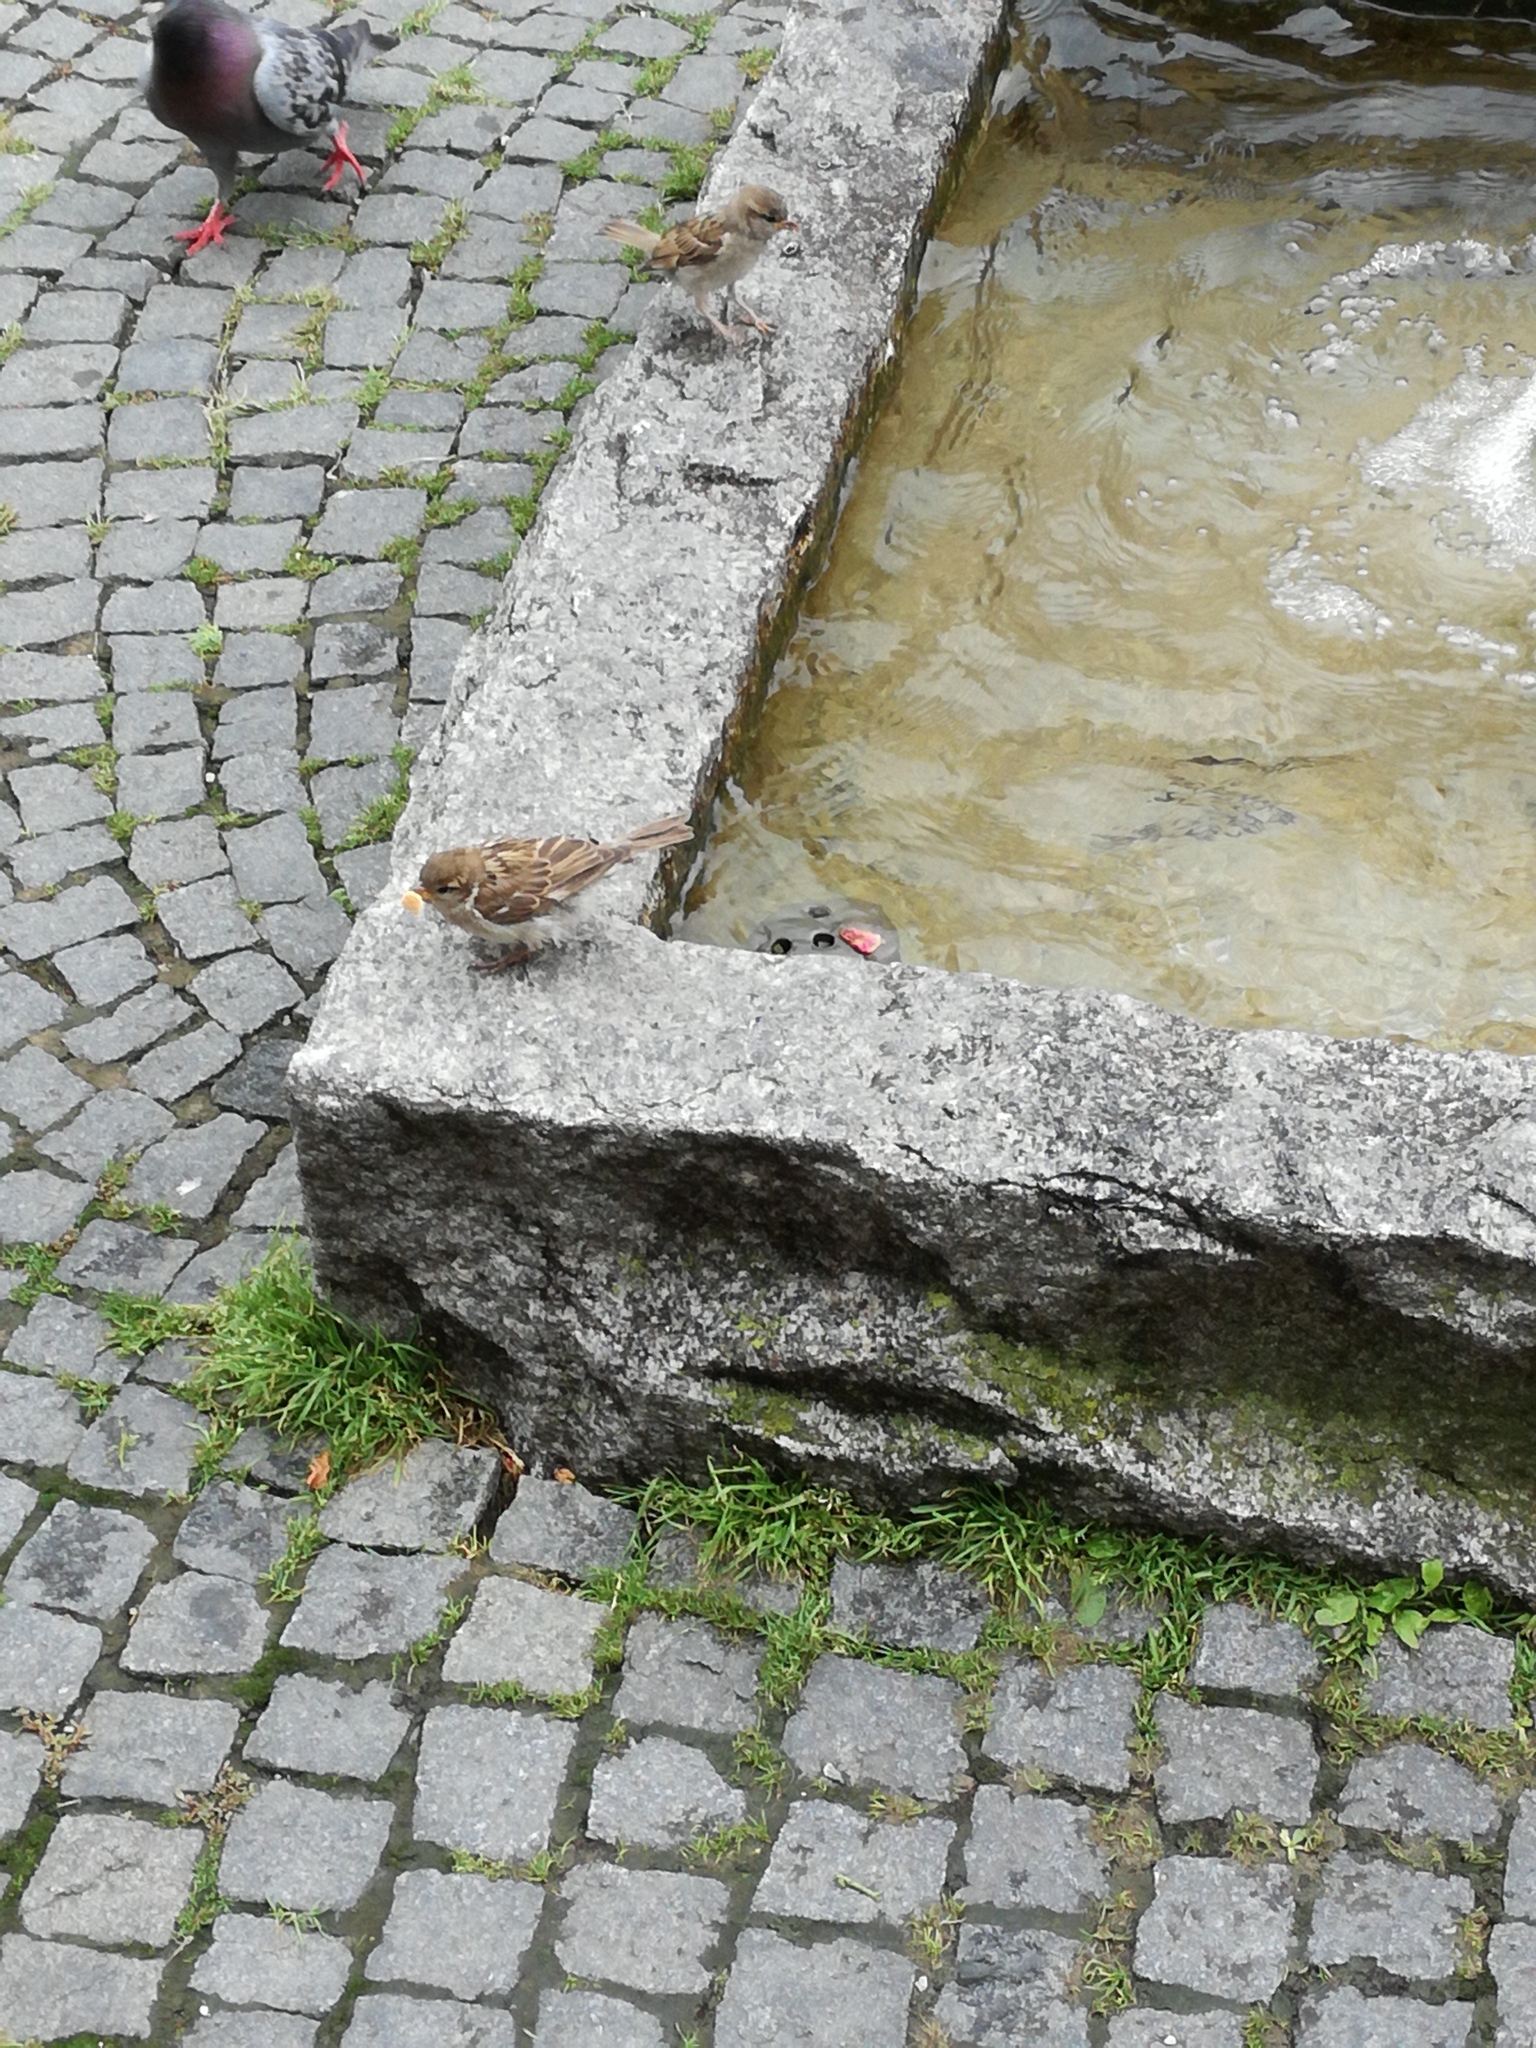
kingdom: Animalia
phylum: Chordata
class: Aves
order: Passeriformes
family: Passeridae
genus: Passer
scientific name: Passer domesticus
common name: House sparrow
